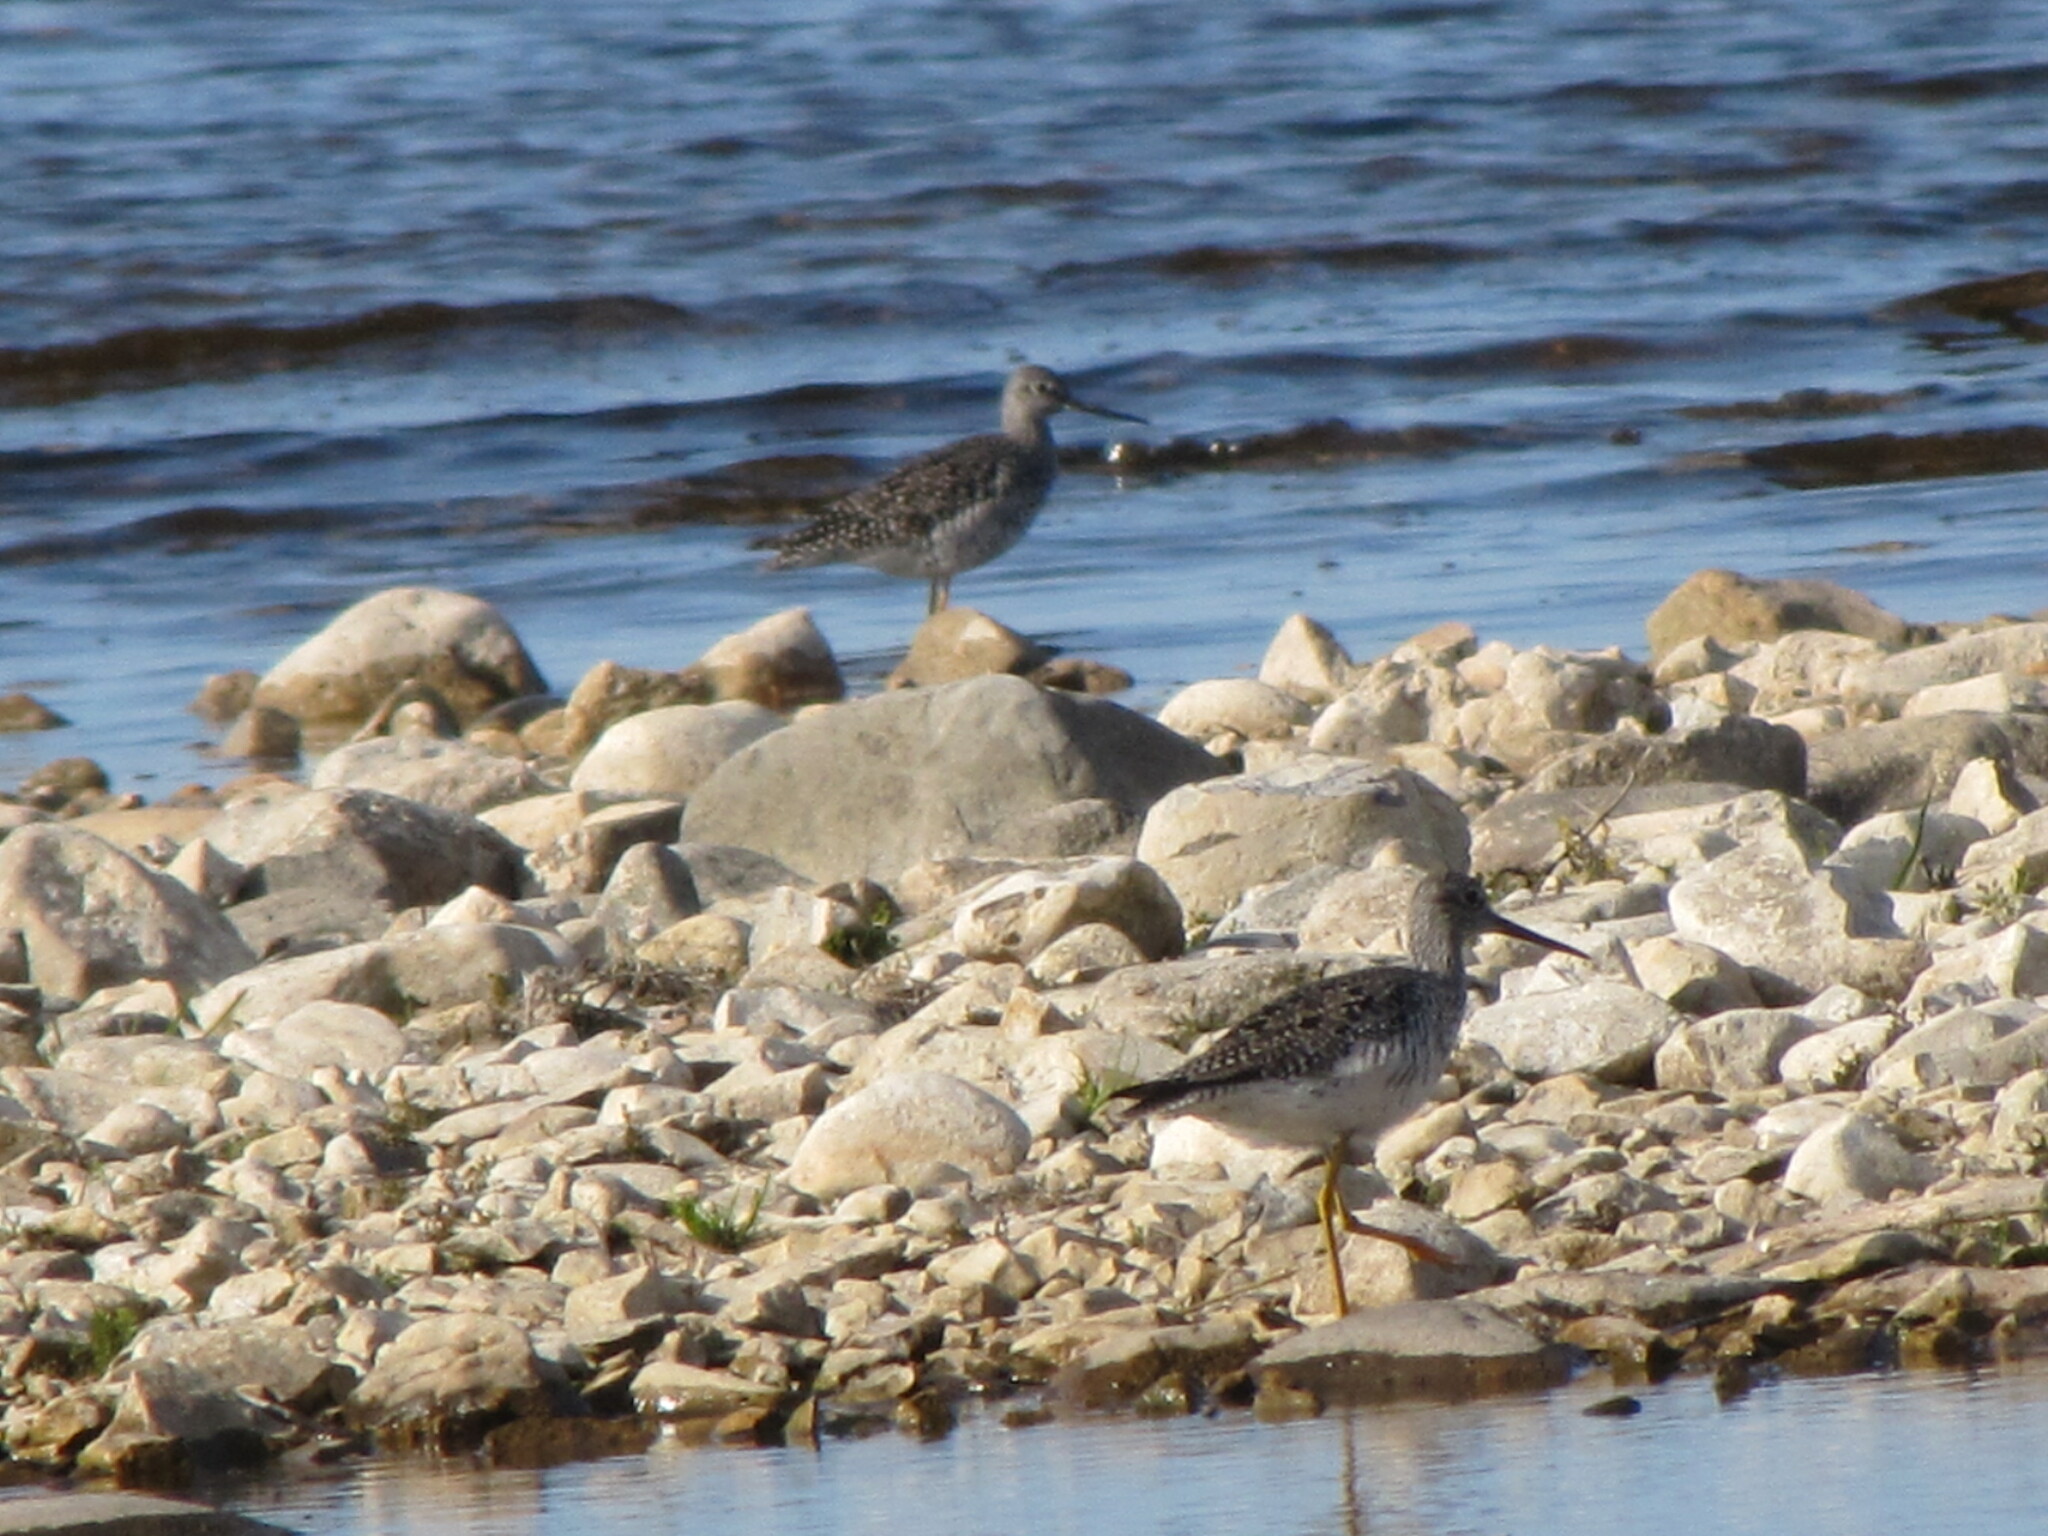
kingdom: Animalia
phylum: Chordata
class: Aves
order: Charadriiformes
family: Scolopacidae
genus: Tringa
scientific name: Tringa melanoleuca
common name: Greater yellowlegs
